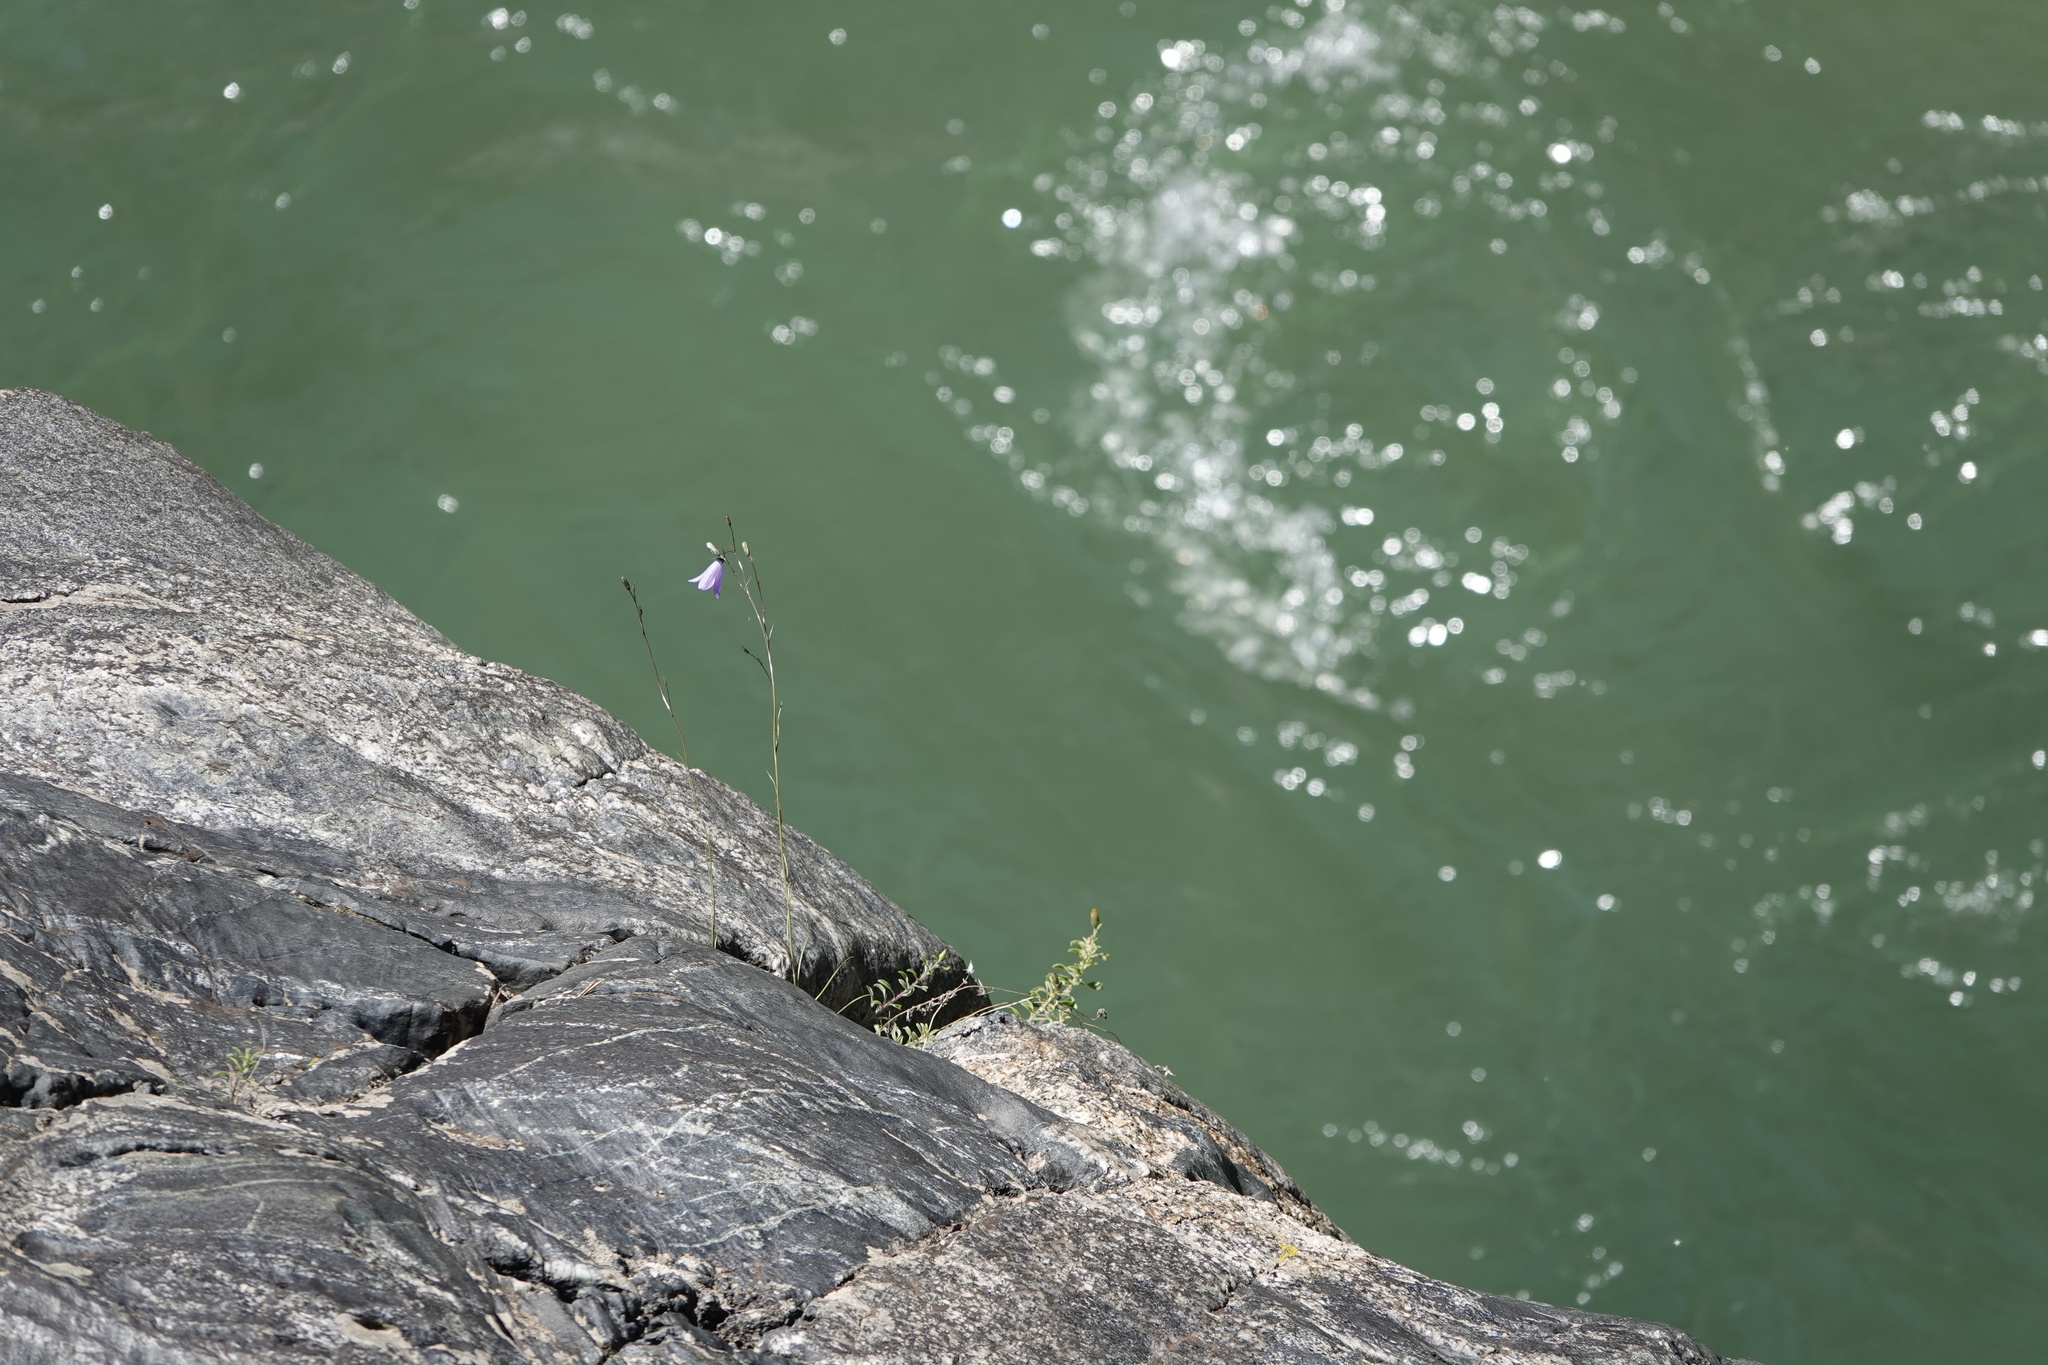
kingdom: Plantae
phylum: Tracheophyta
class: Magnoliopsida
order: Asterales
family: Campanulaceae
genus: Campanula
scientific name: Campanula petiolata
